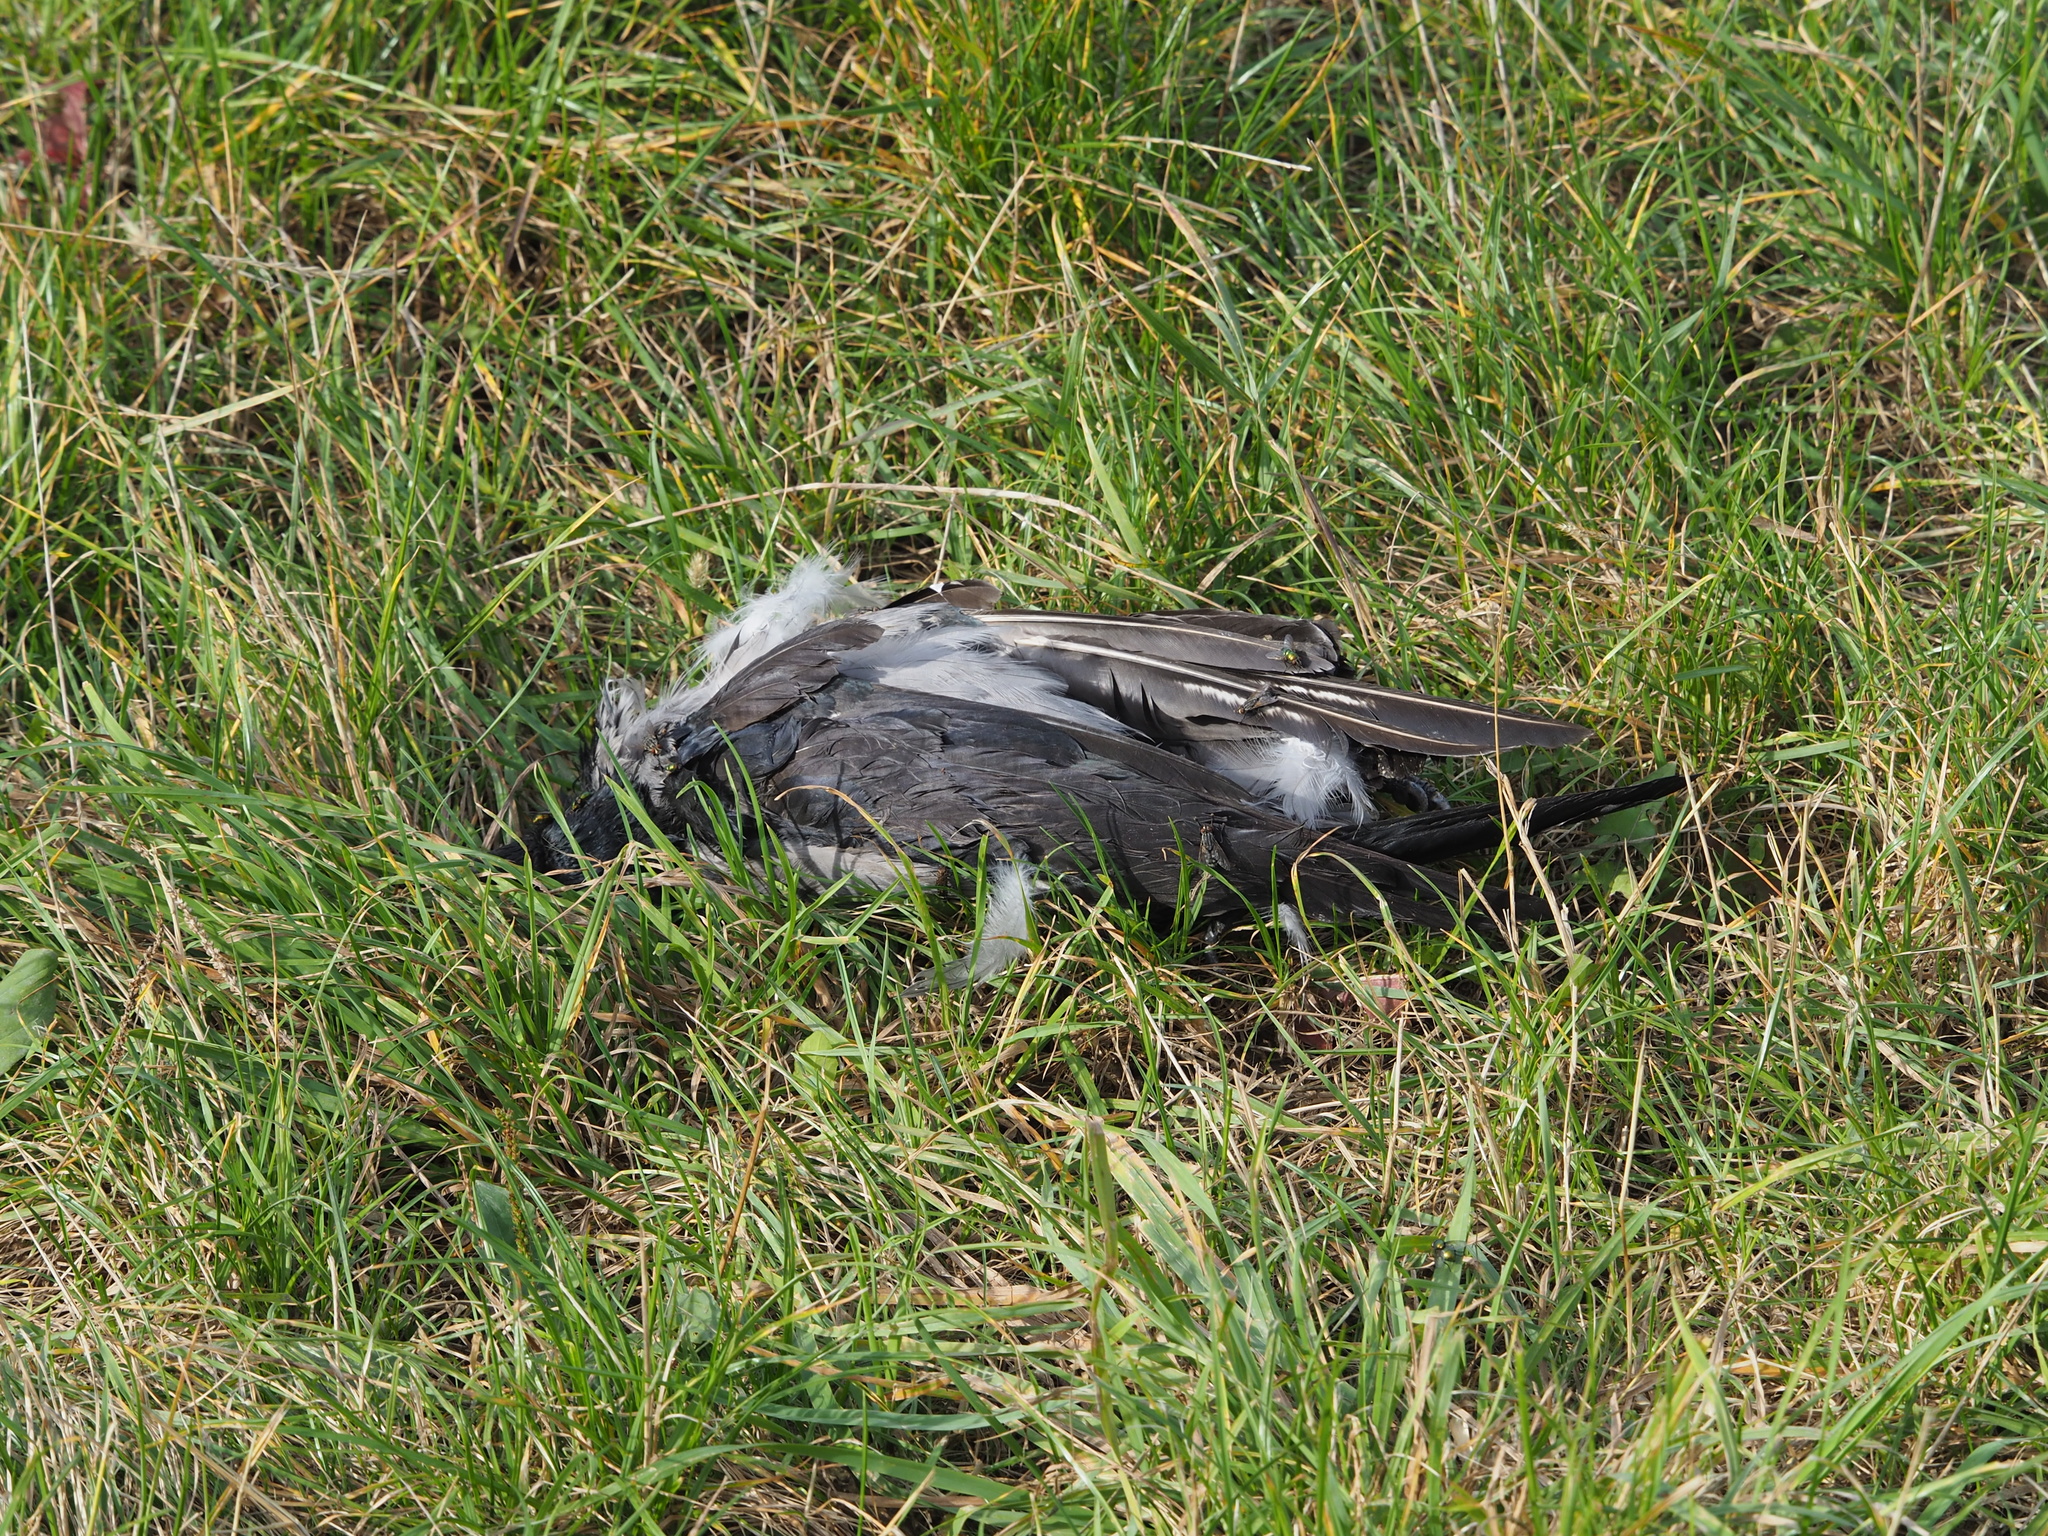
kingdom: Animalia
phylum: Chordata
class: Aves
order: Passeriformes
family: Corvidae
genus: Corvus
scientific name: Corvus cornix
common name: Hooded crow
